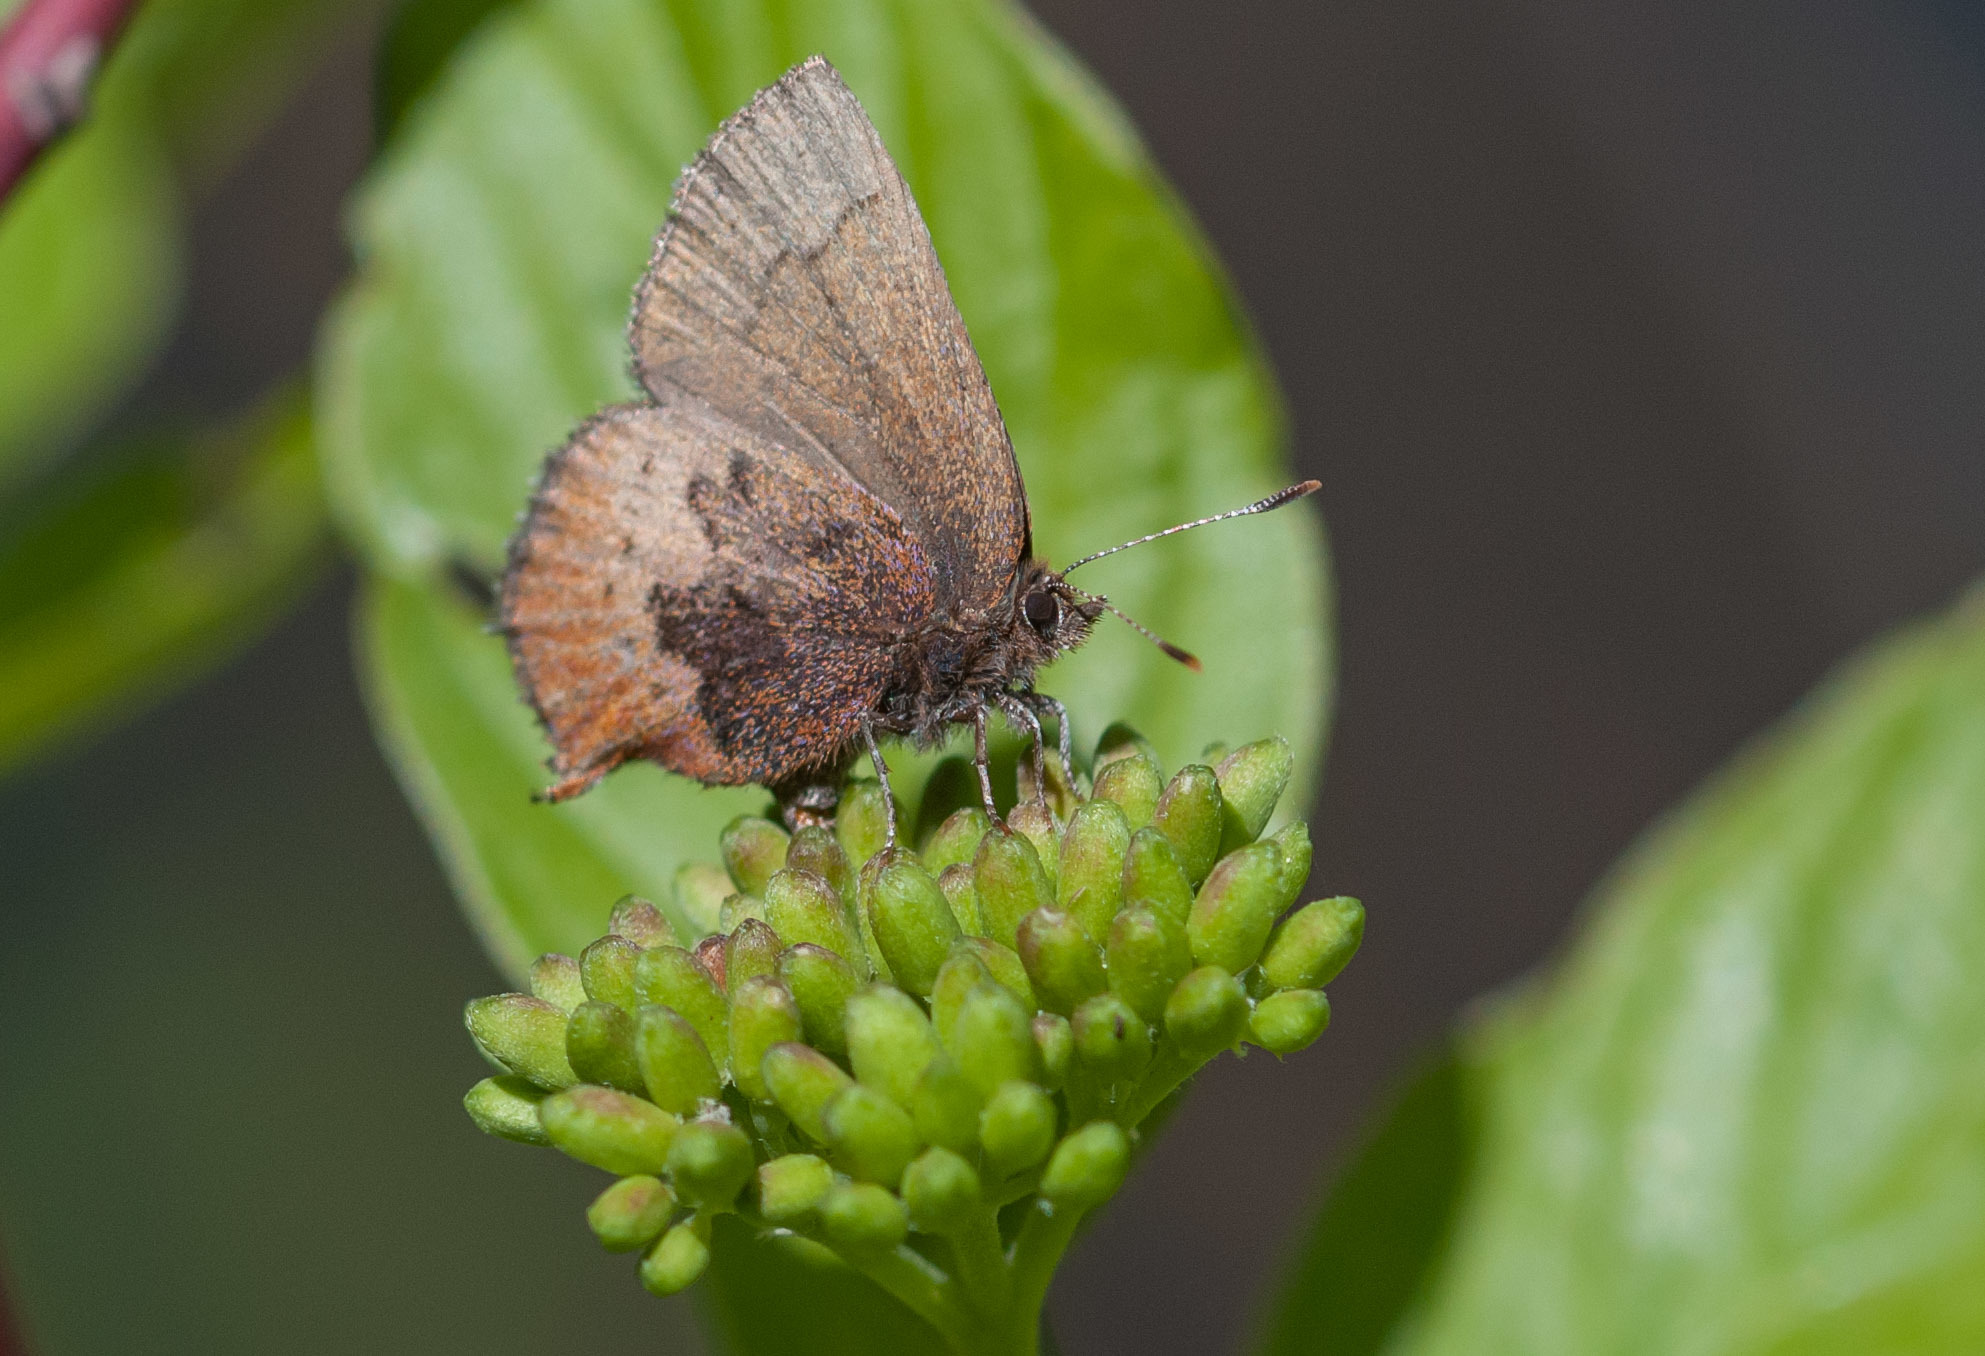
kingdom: Animalia
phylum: Arthropoda
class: Insecta
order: Lepidoptera
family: Lycaenidae
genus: Incisalia
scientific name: Incisalia irioides
